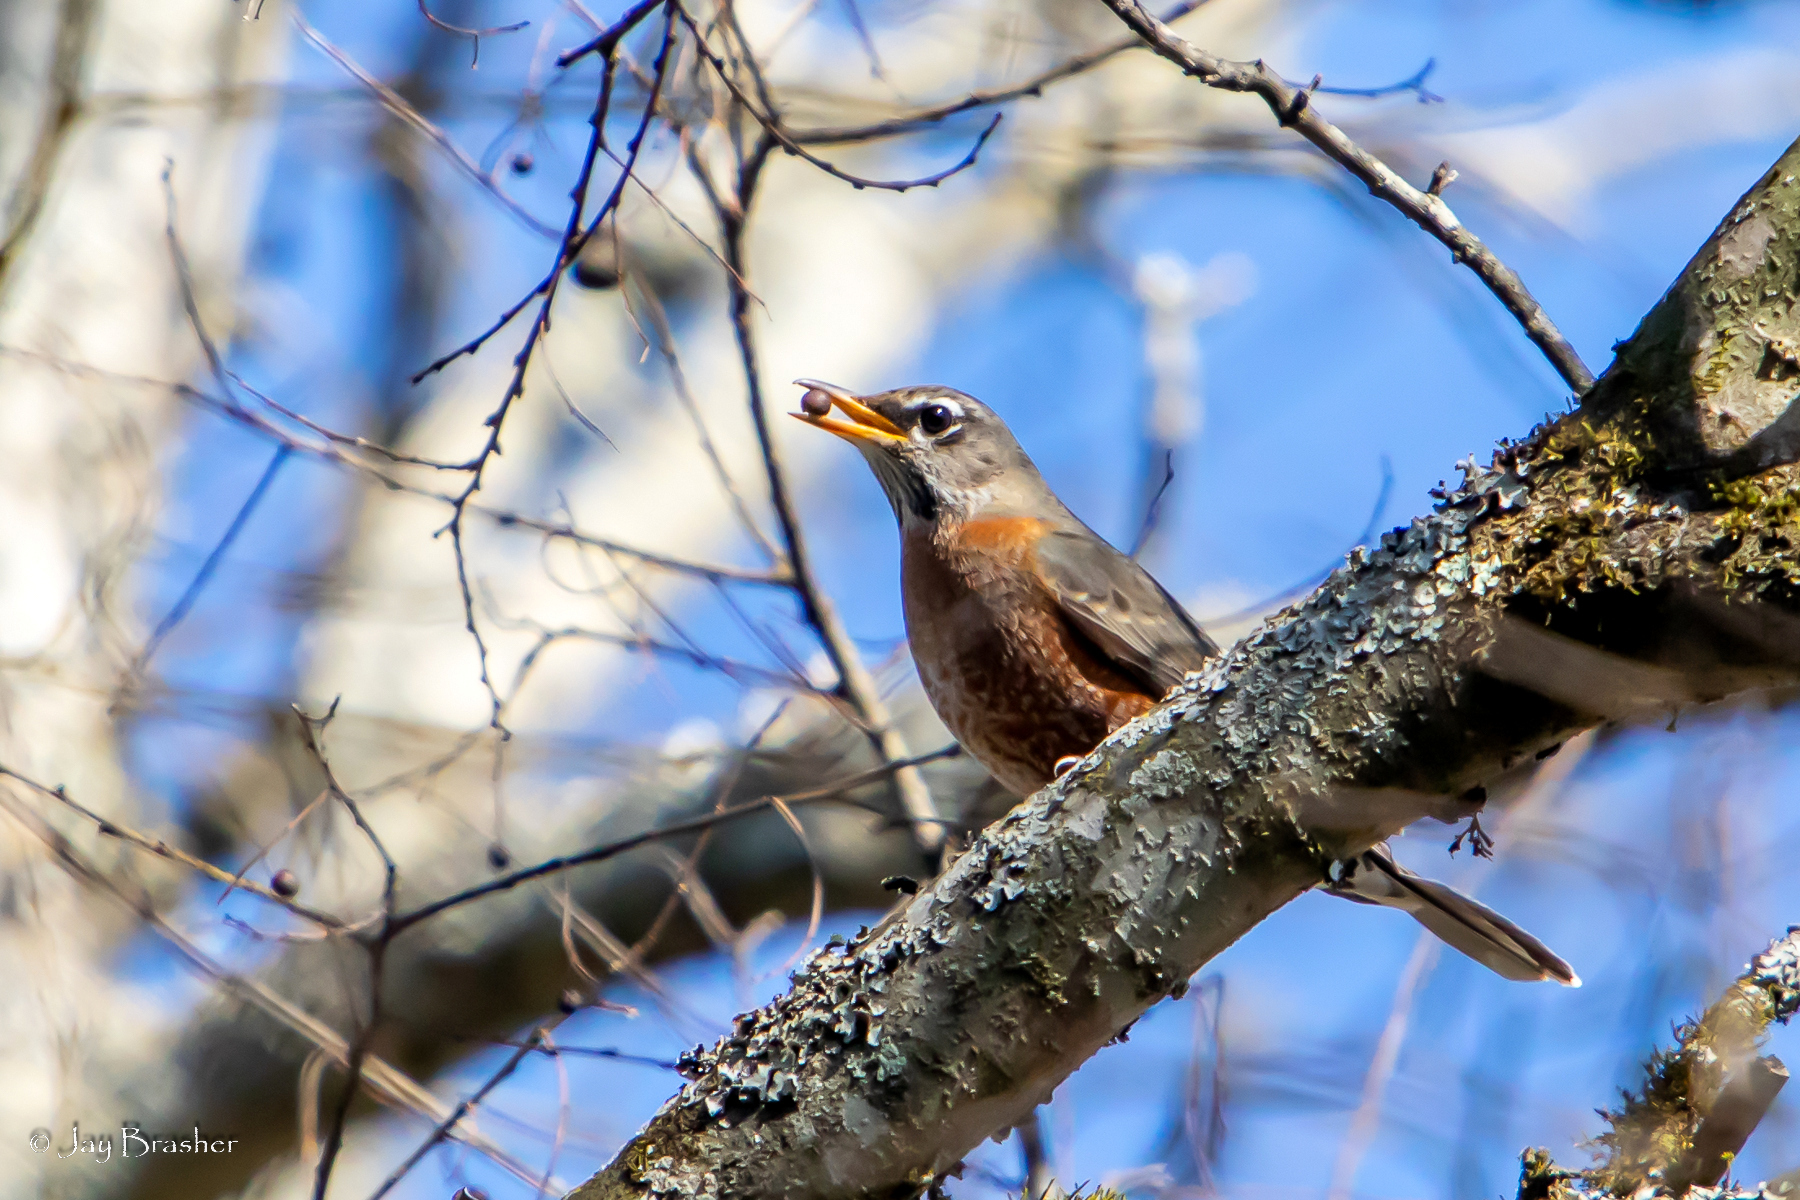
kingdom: Animalia
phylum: Chordata
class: Aves
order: Passeriformes
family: Turdidae
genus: Turdus
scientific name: Turdus migratorius
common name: American robin
